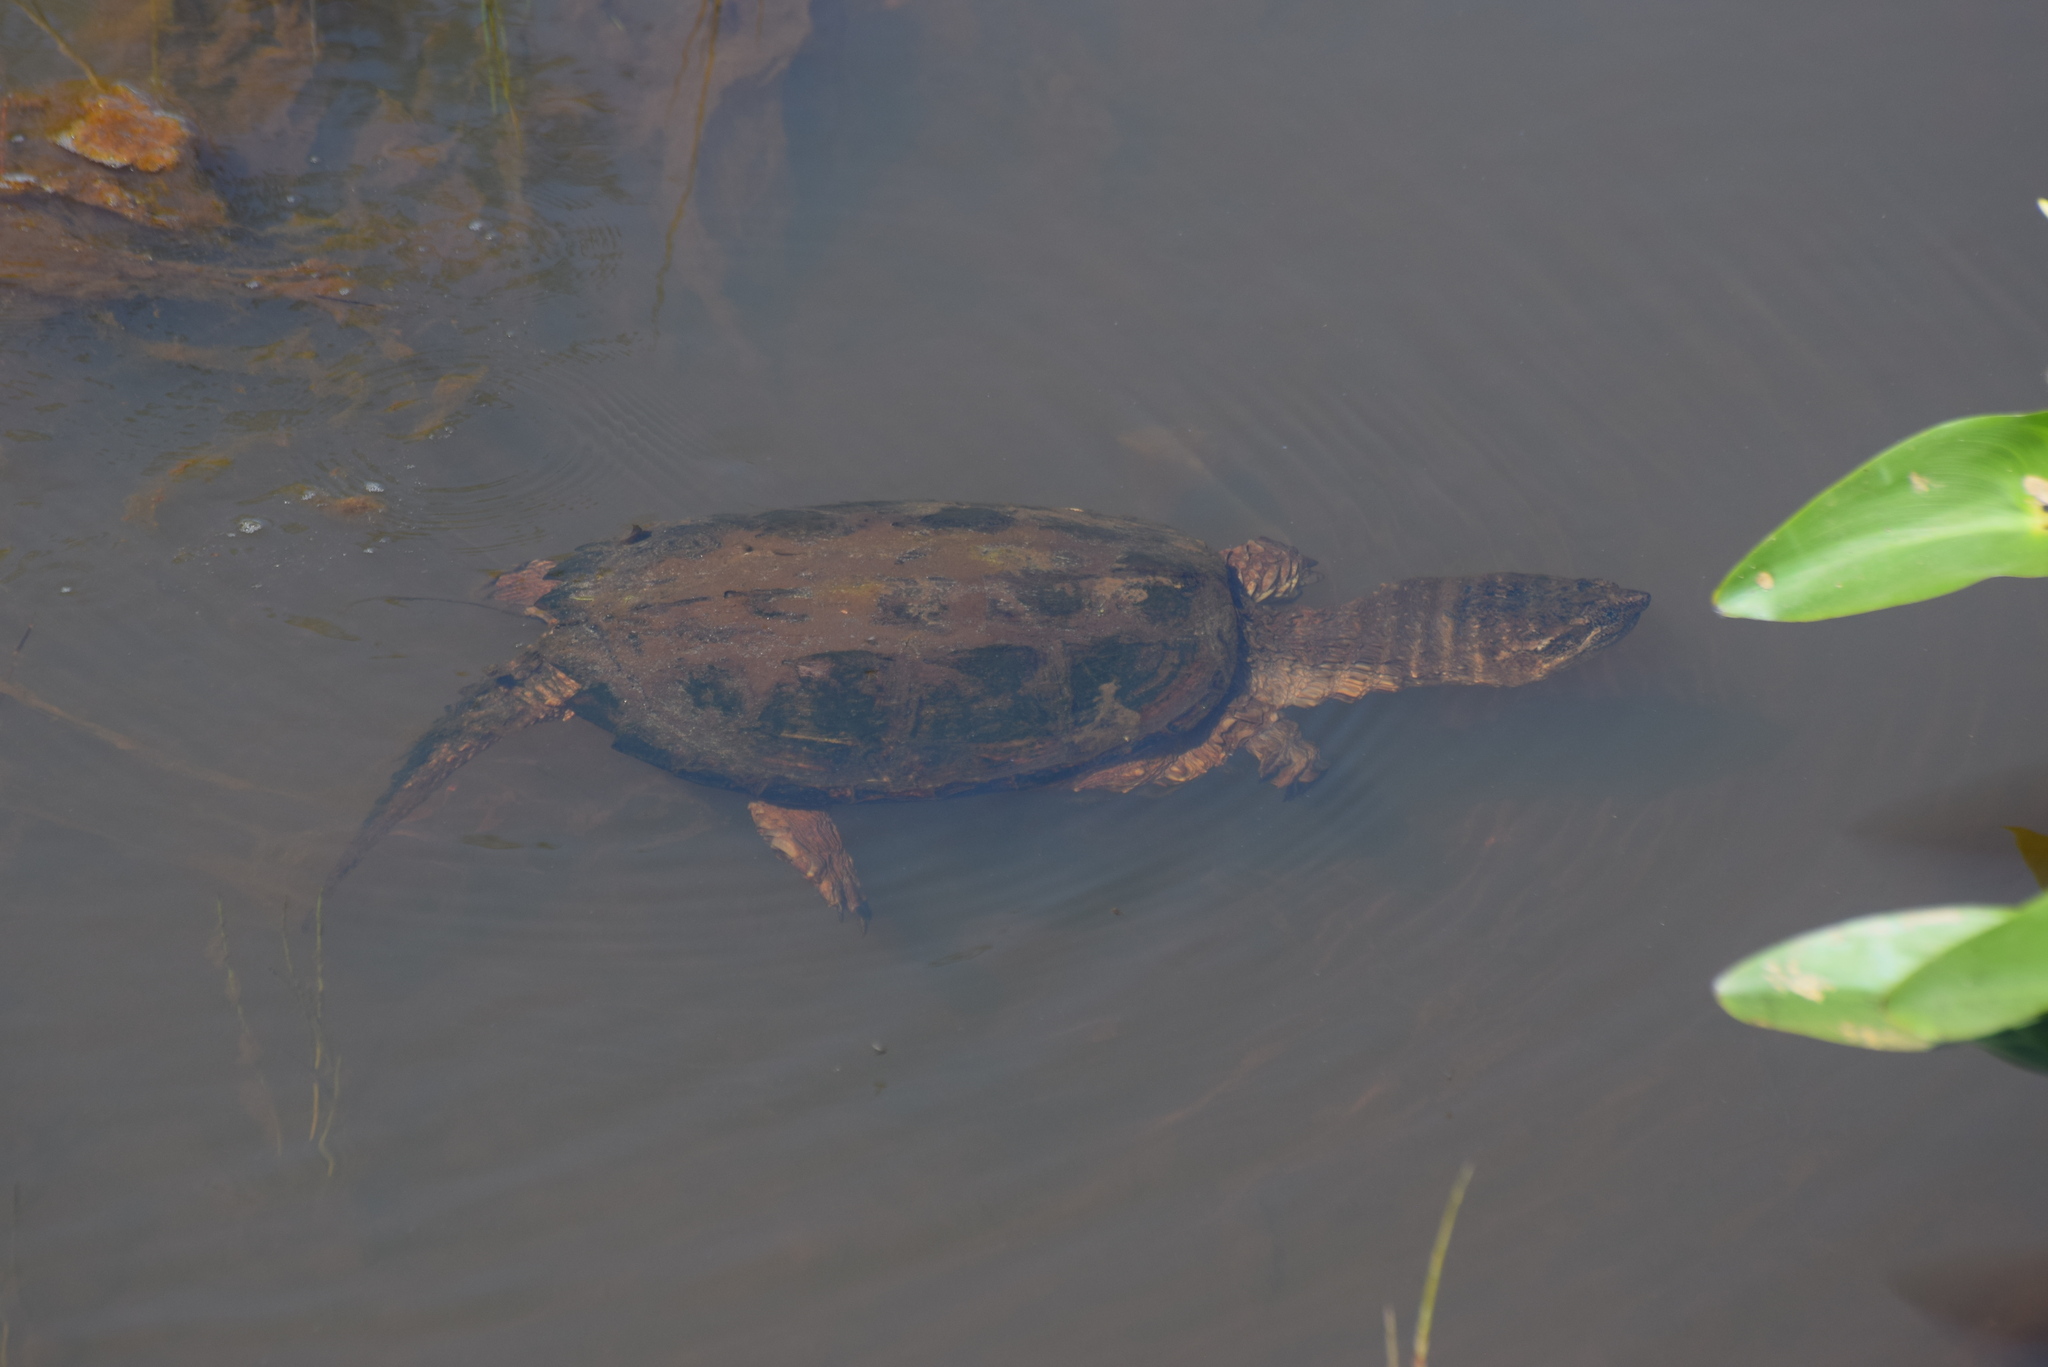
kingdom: Animalia
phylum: Chordata
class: Testudines
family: Chelydridae
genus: Chelydra
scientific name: Chelydra serpentina
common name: Common snapping turtle
